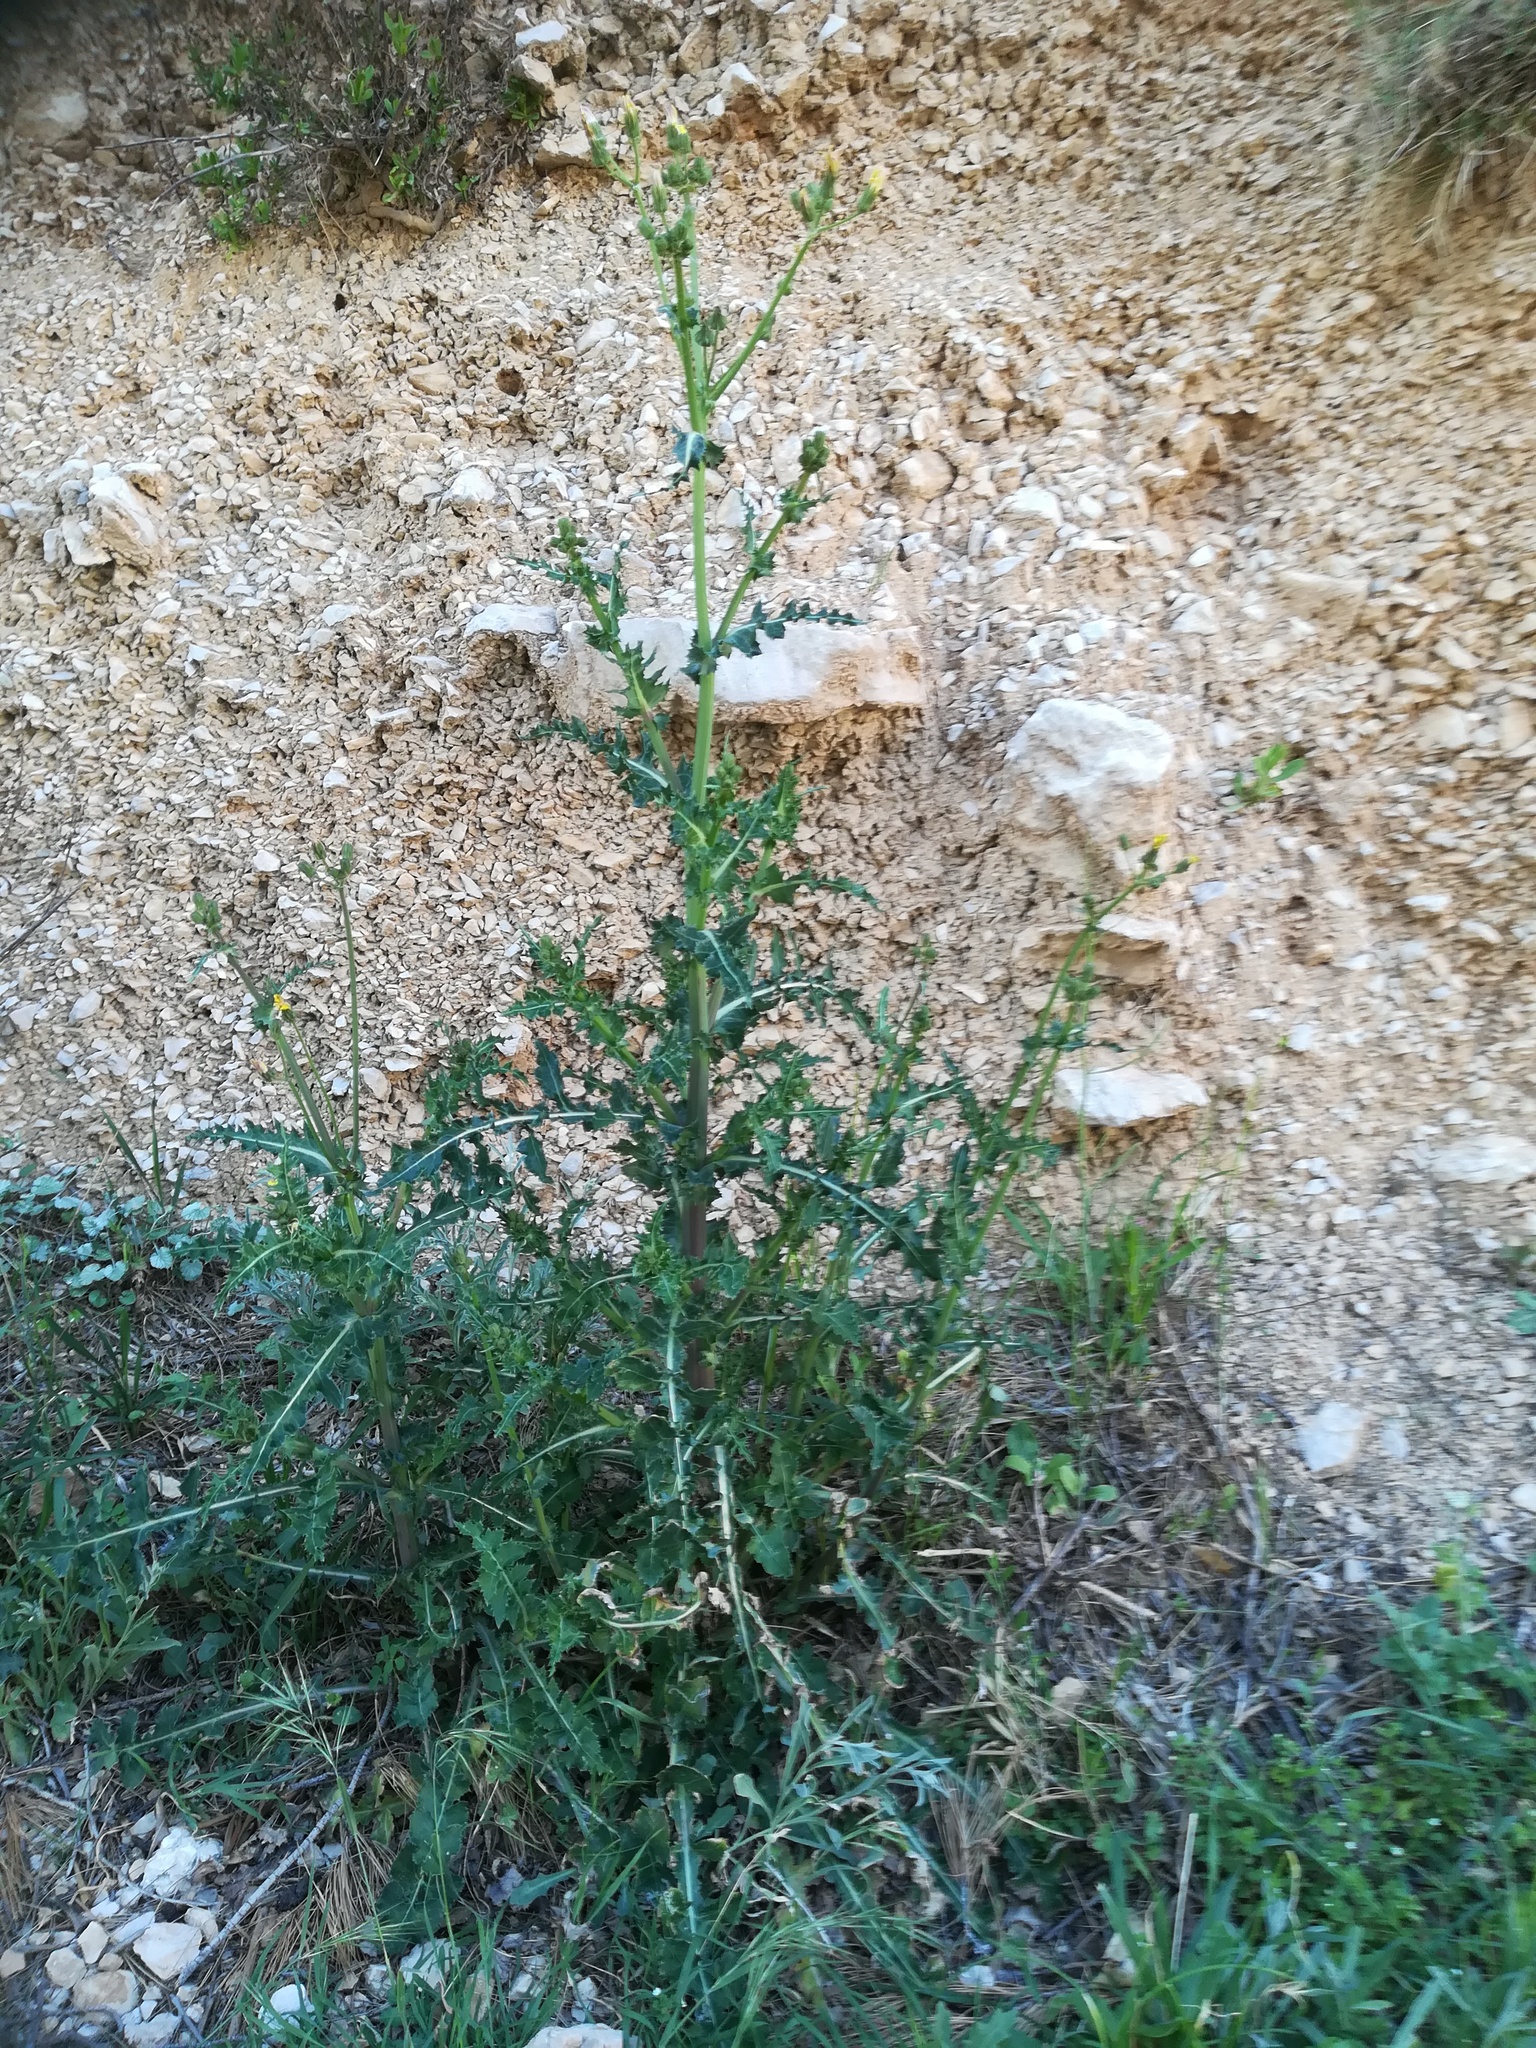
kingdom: Plantae
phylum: Tracheophyta
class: Magnoliopsida
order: Asterales
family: Asteraceae
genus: Sonchus
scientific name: Sonchus asper
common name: Prickly sow-thistle
